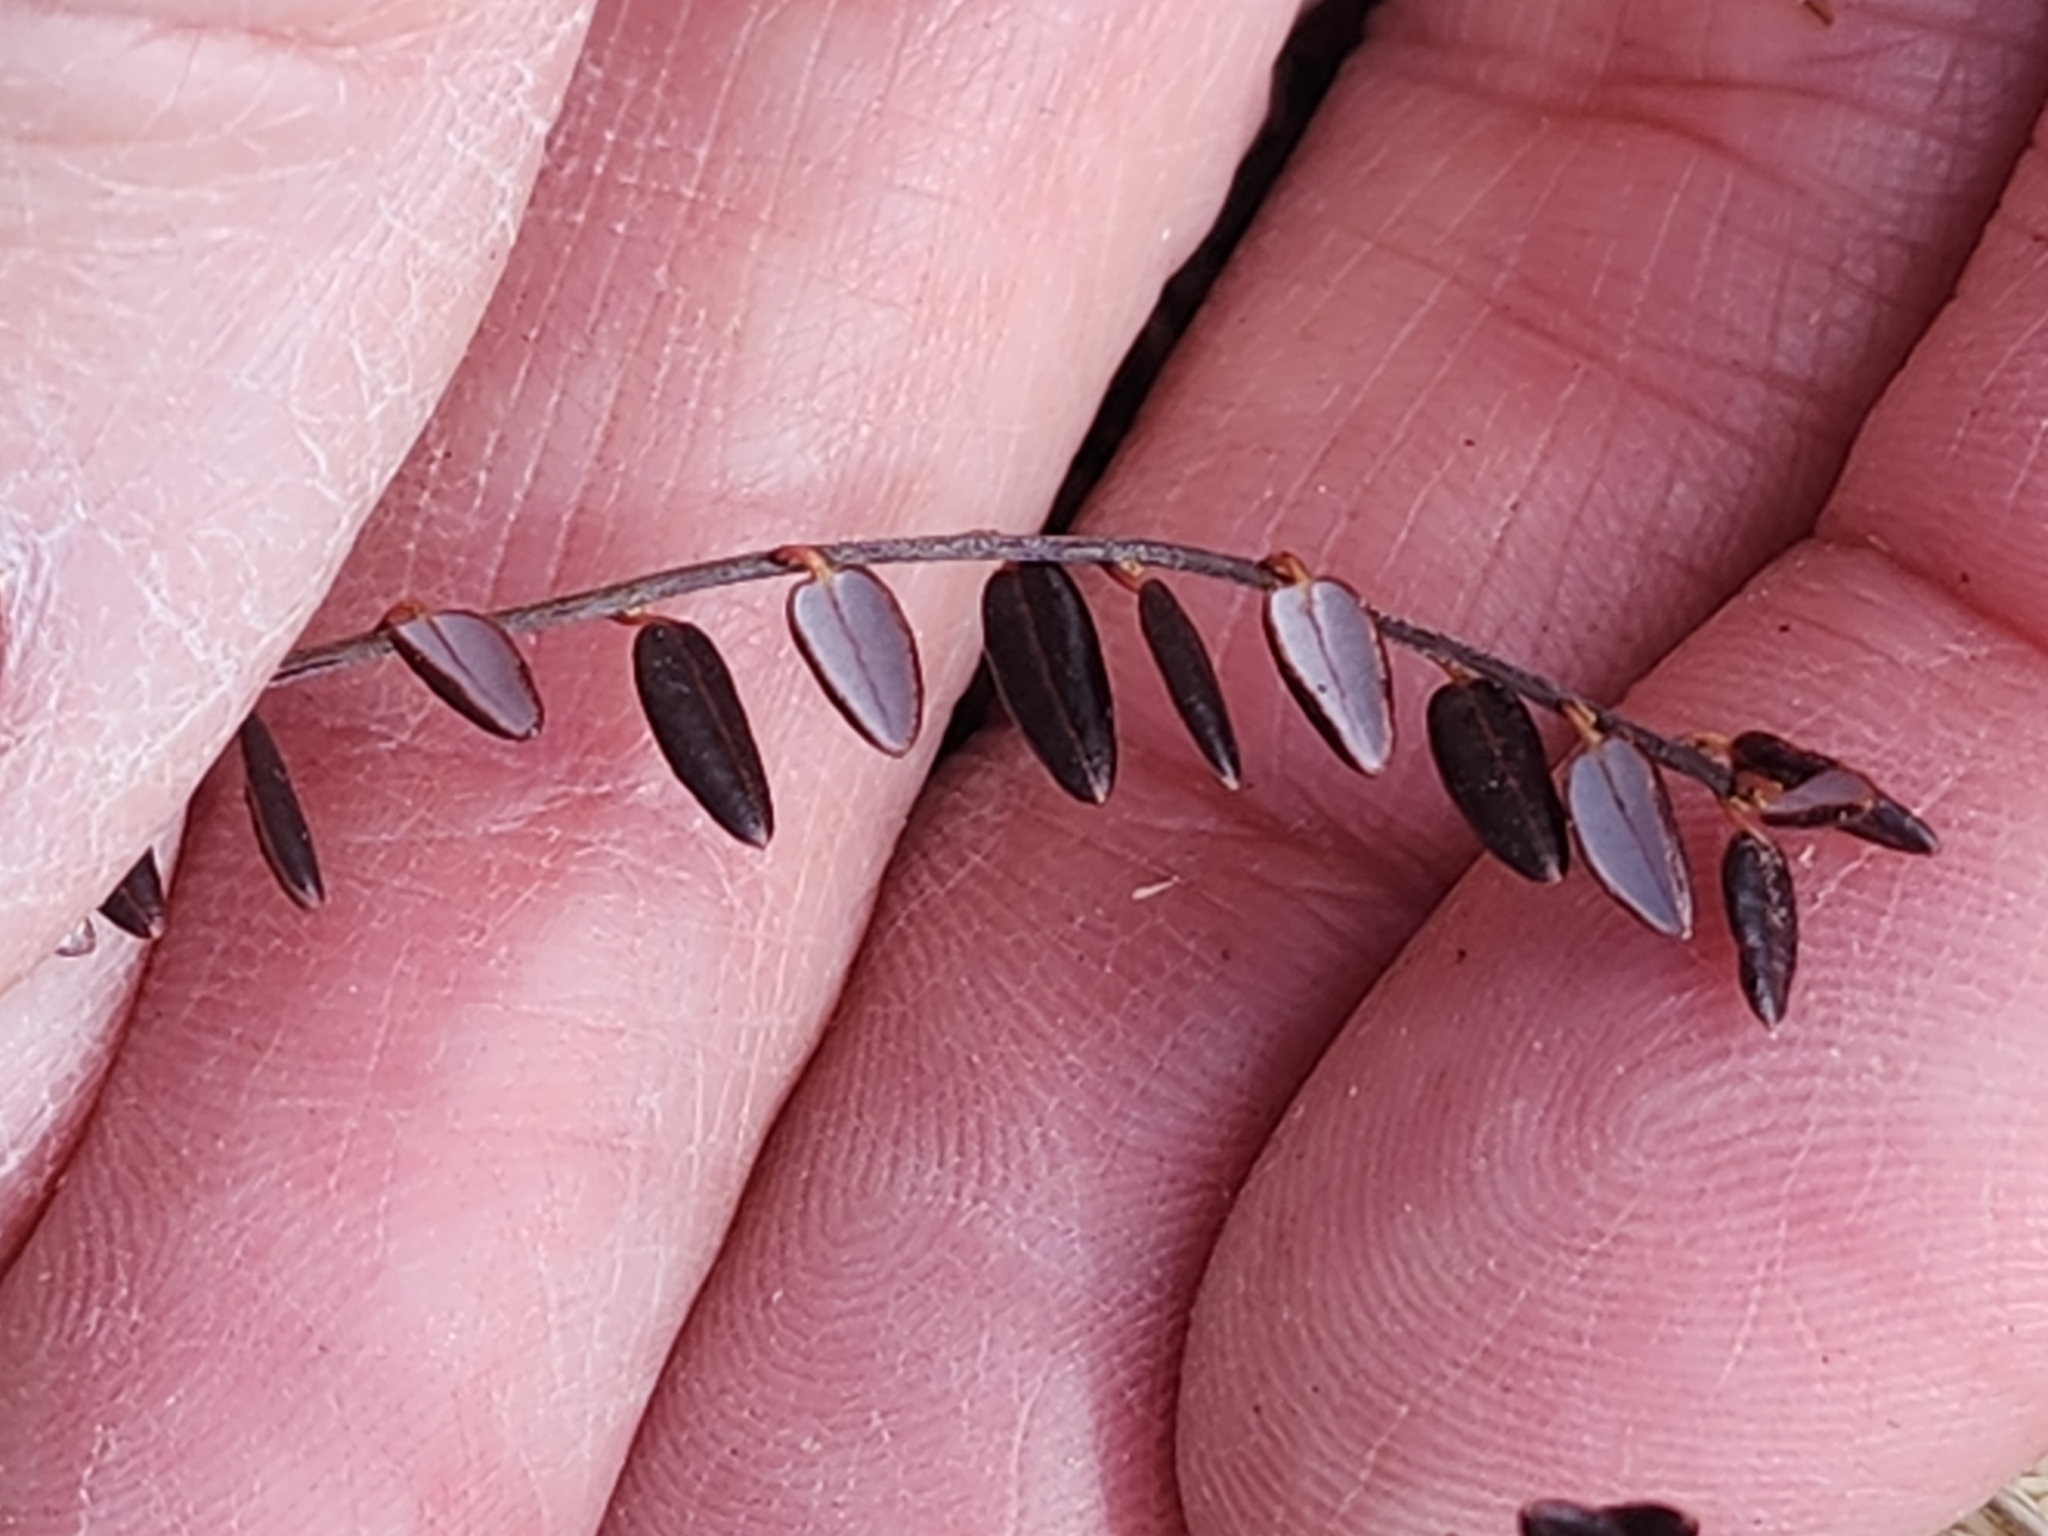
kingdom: Plantae
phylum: Tracheophyta
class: Magnoliopsida
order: Ericales
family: Ericaceae
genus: Vaccinium
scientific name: Vaccinium oxycoccos
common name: Cranberry
